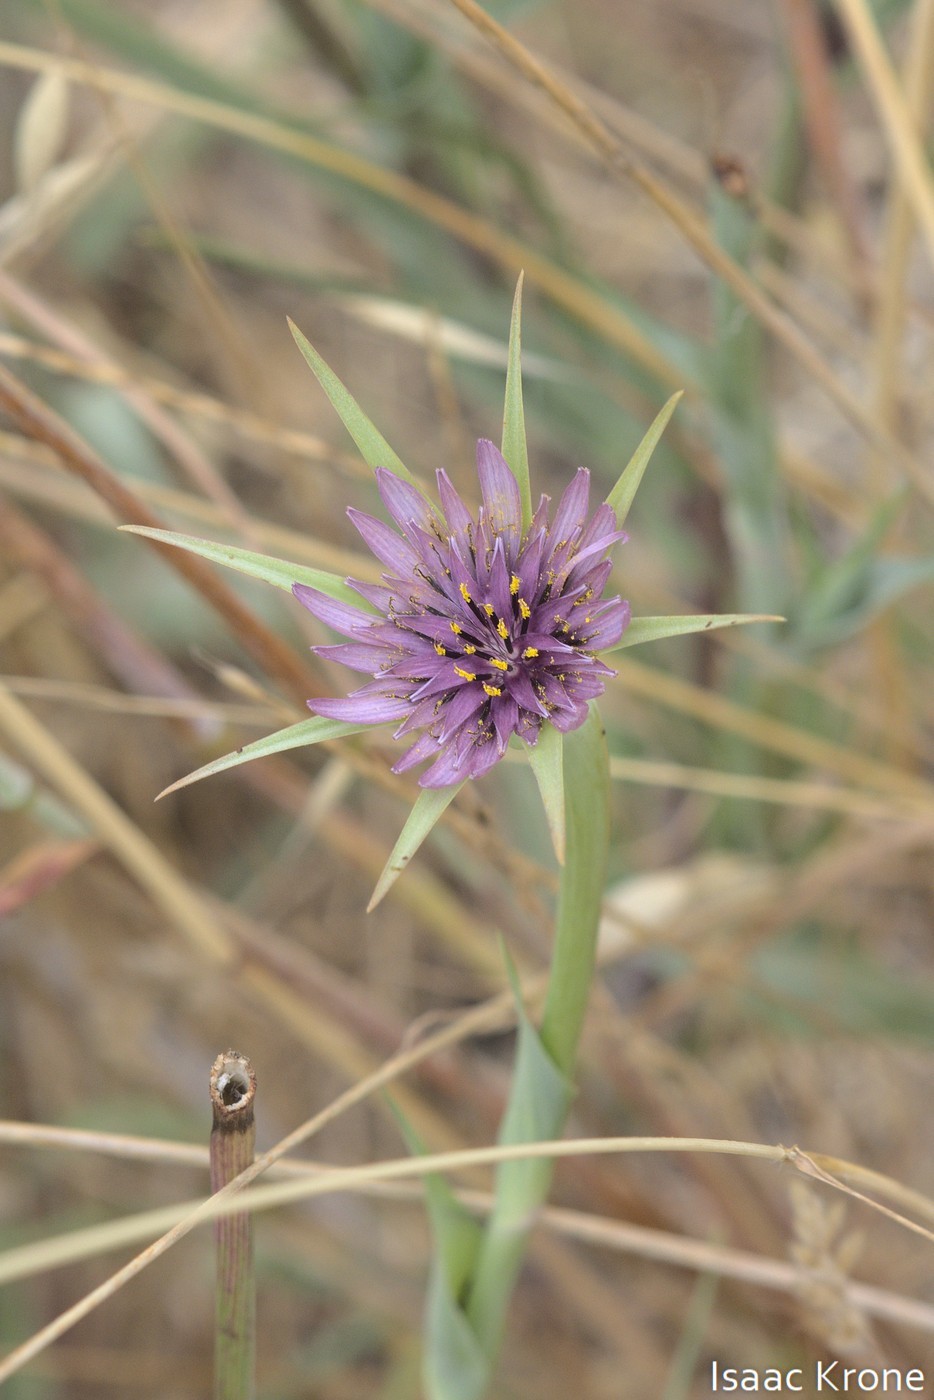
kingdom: Plantae
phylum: Tracheophyta
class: Magnoliopsida
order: Asterales
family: Asteraceae
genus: Tragopogon
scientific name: Tragopogon porrifolius
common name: Salsify
